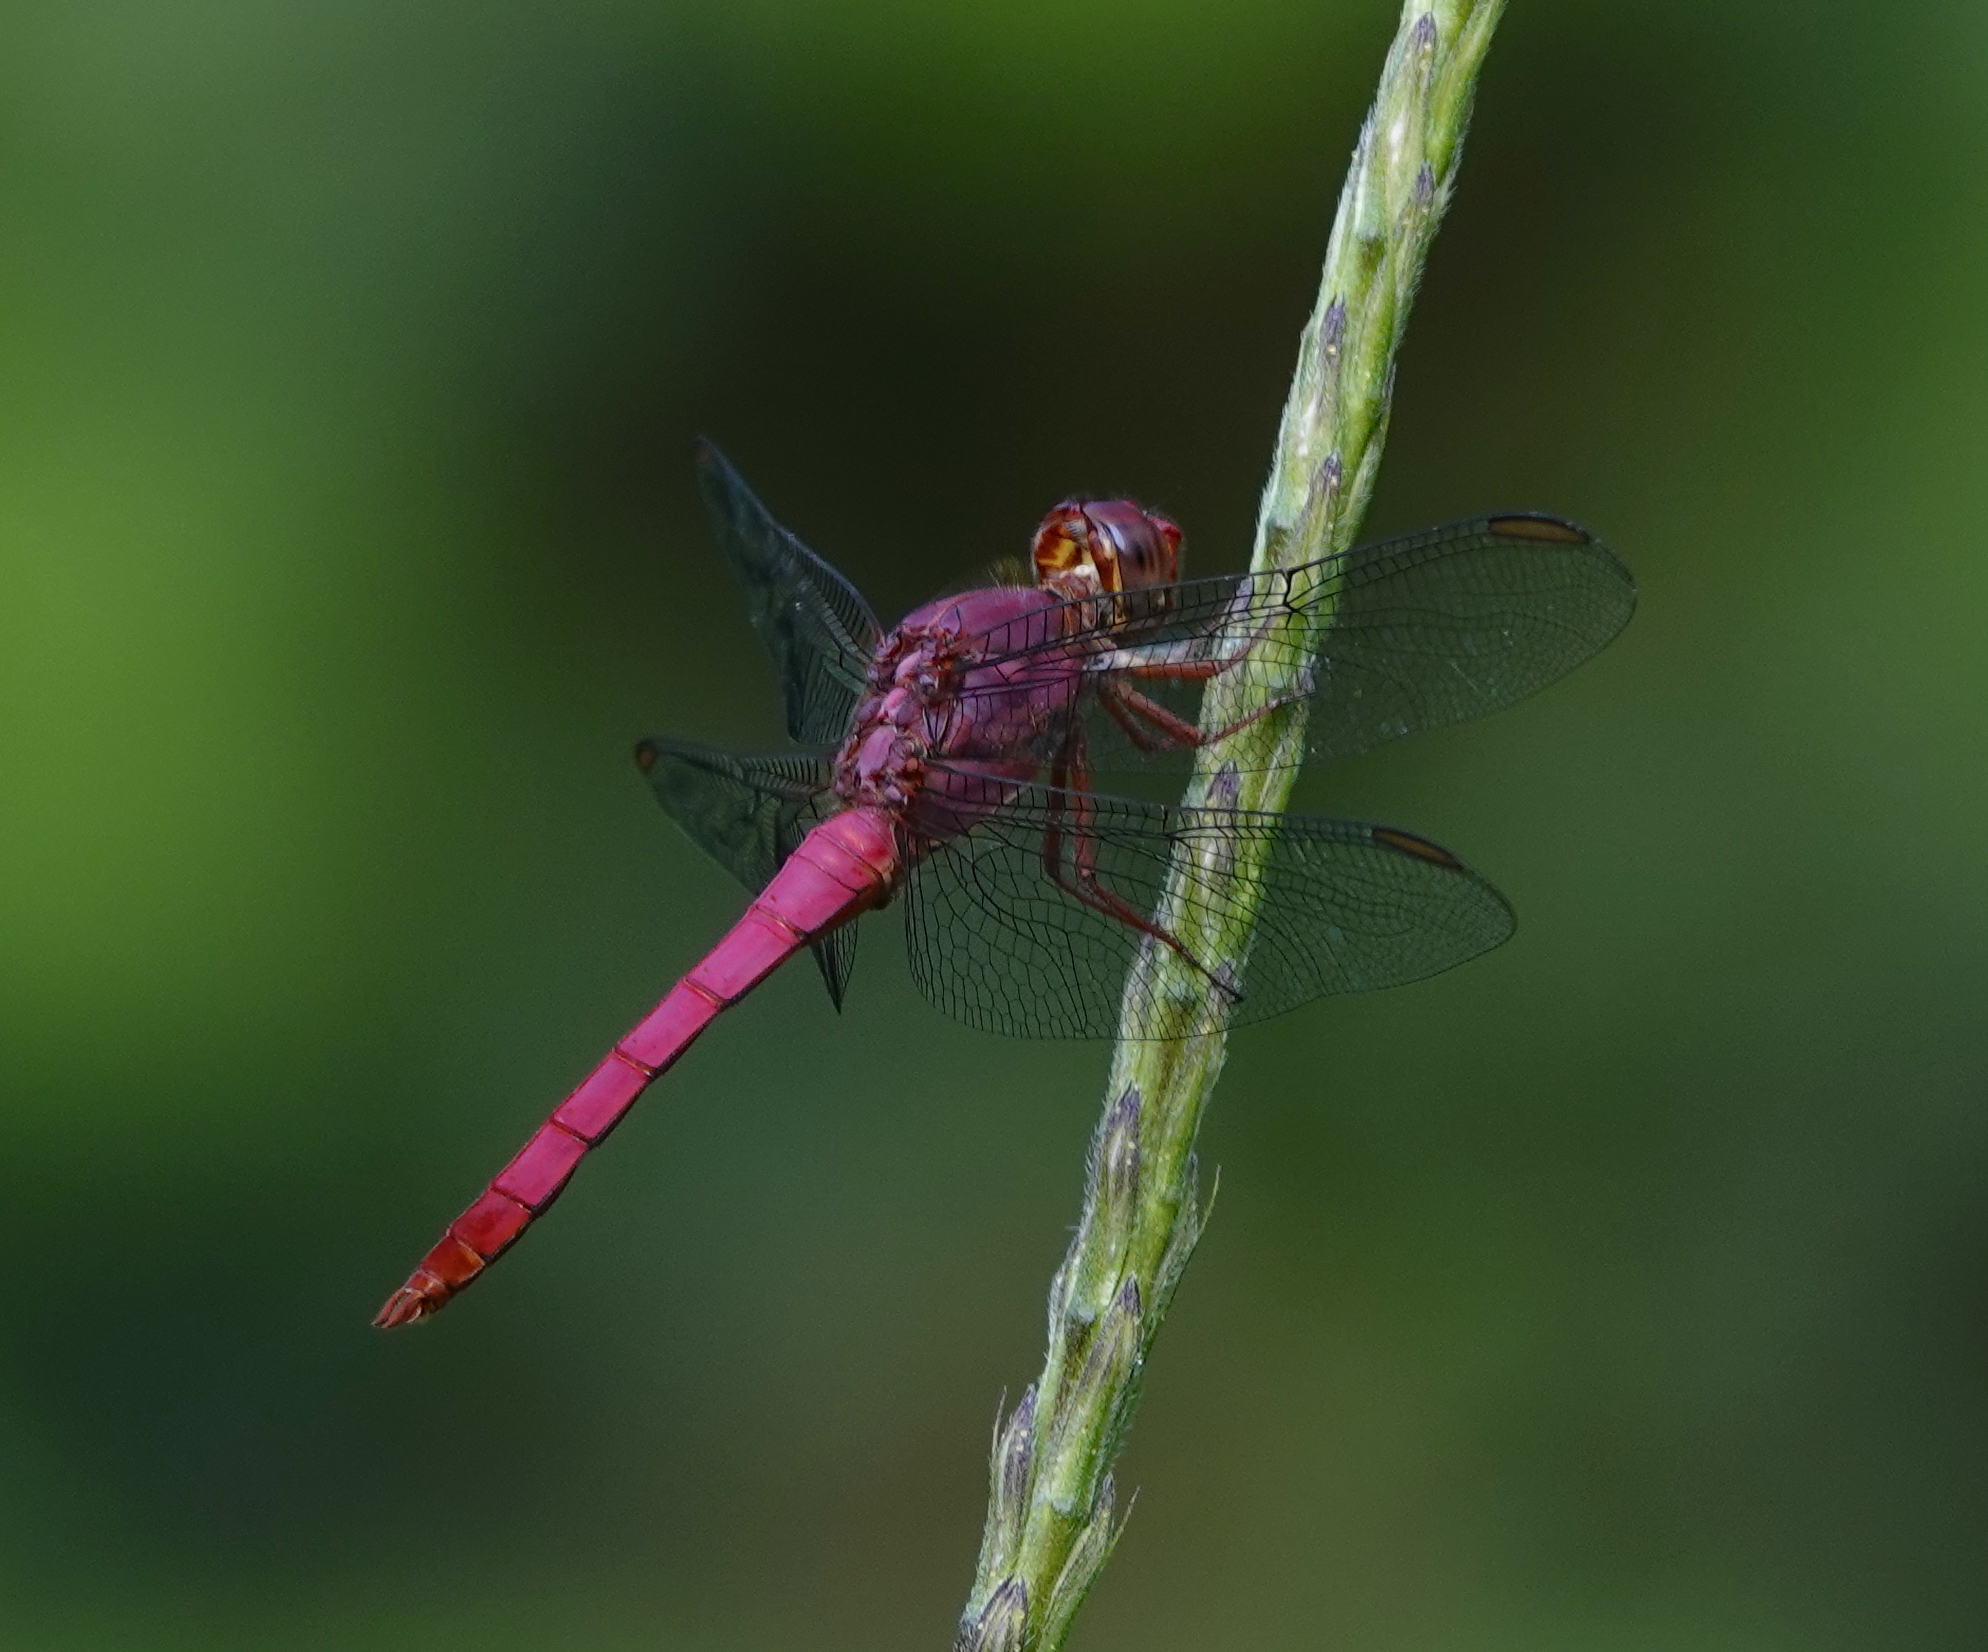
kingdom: Animalia
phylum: Arthropoda
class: Insecta
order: Odonata
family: Libellulidae
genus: Orthemis
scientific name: Orthemis discolor
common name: Carmine skimmer
